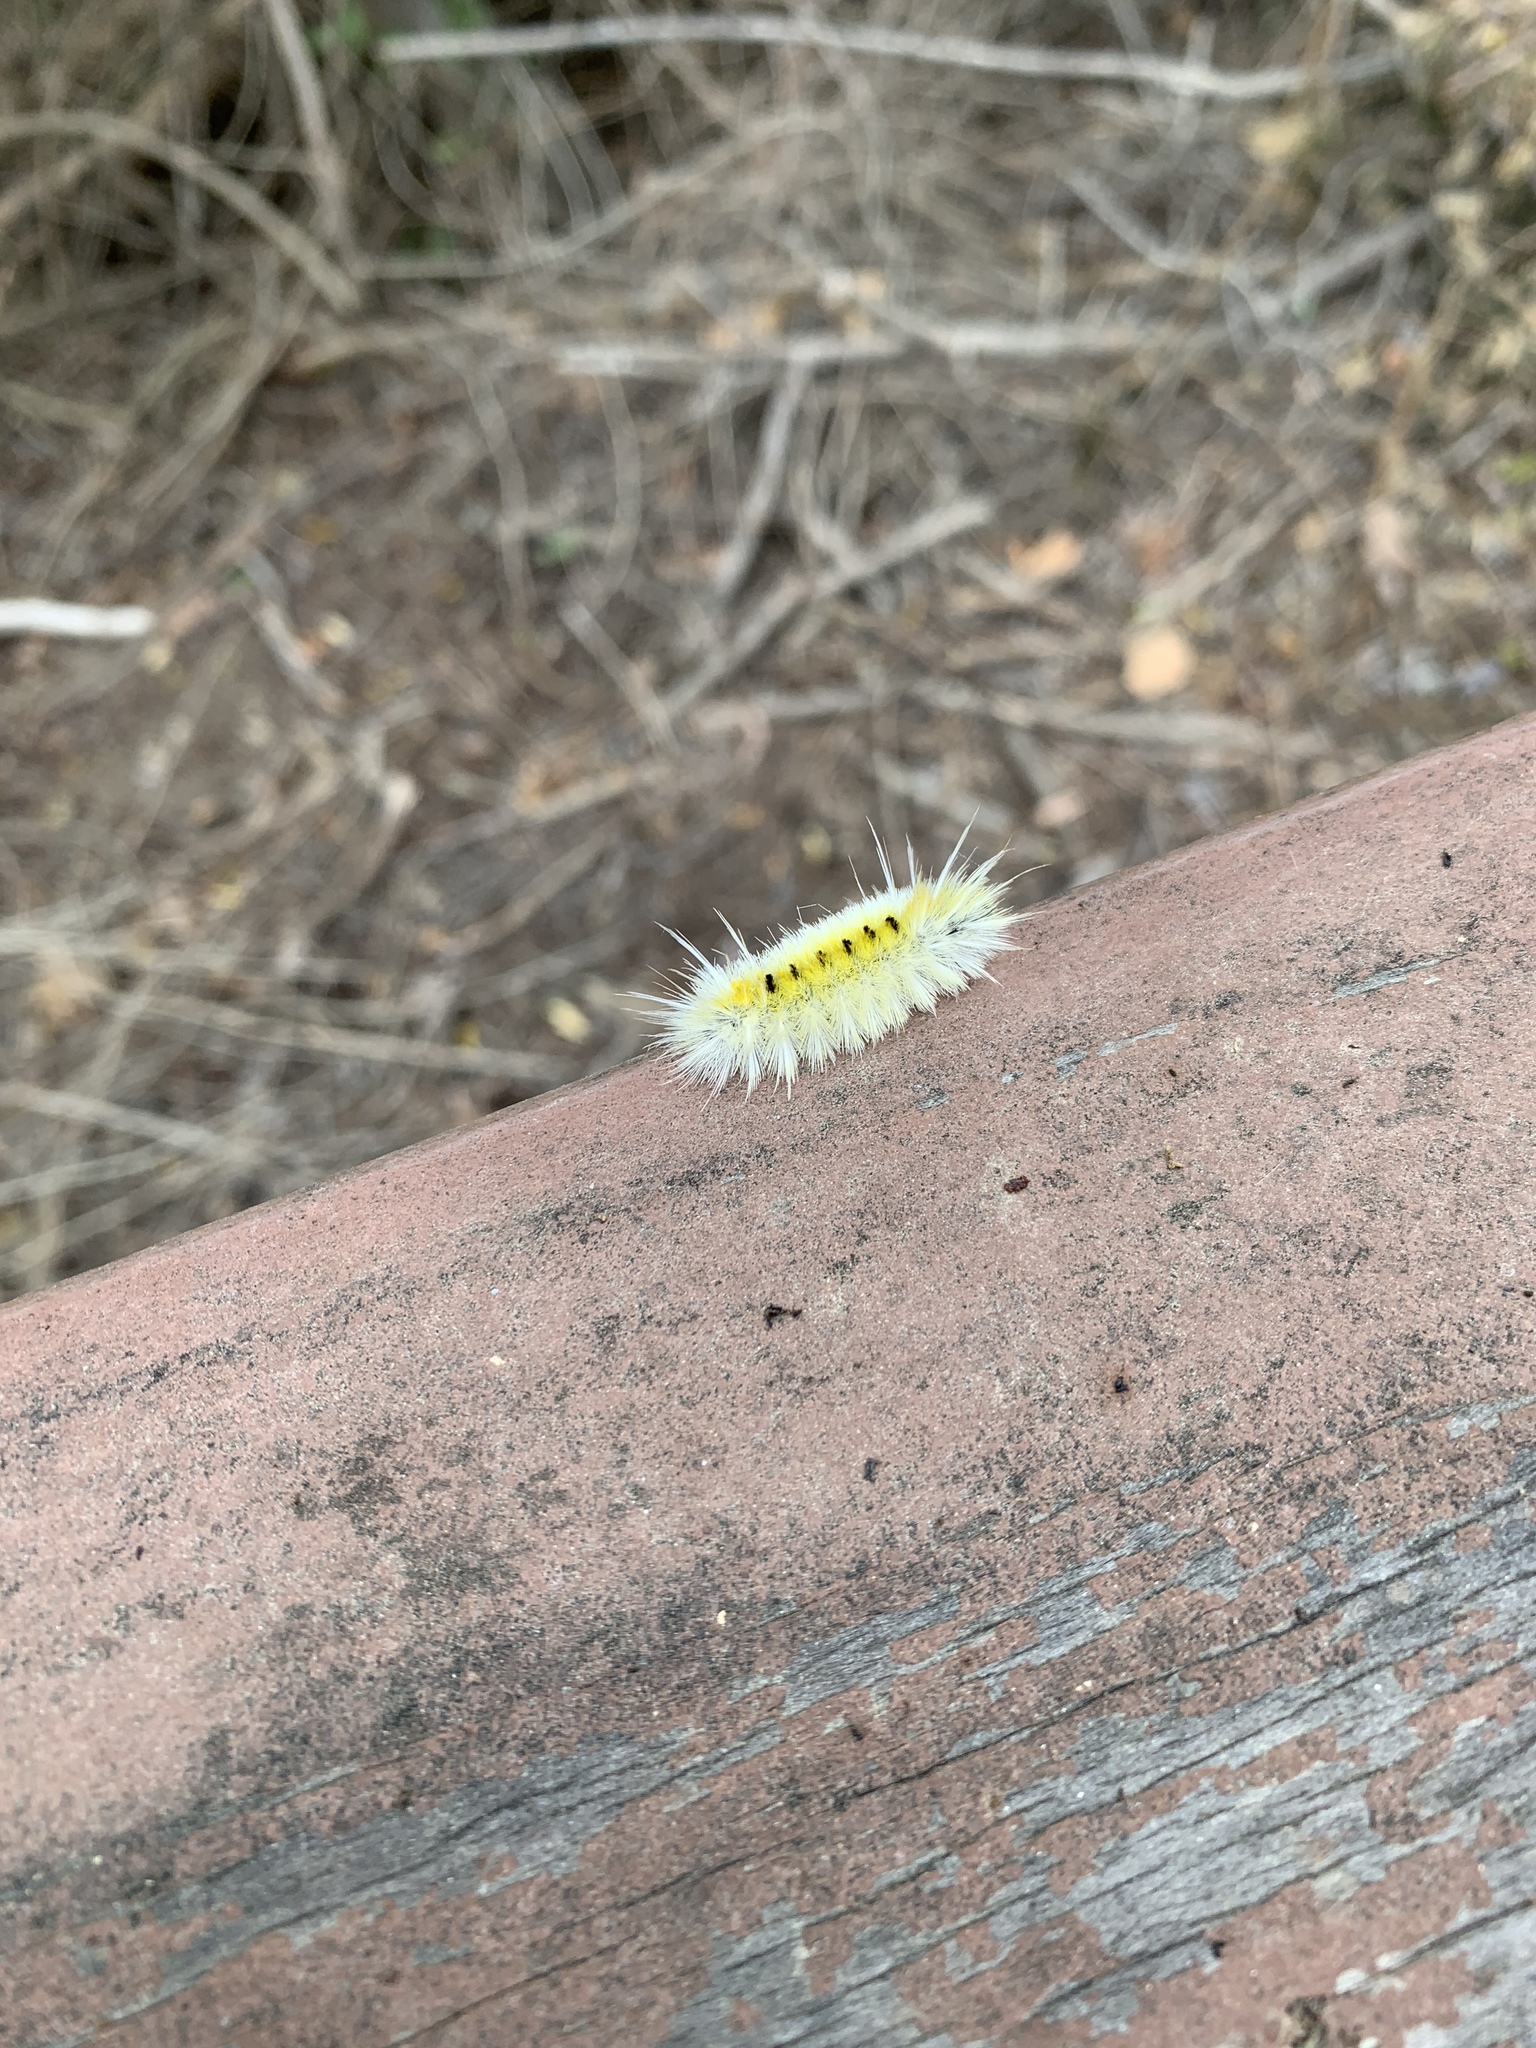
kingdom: Animalia
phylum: Arthropoda
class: Insecta
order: Lepidoptera
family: Erebidae
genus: Lophocampa
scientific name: Lophocampa maculata
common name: Spotted tussock moth
